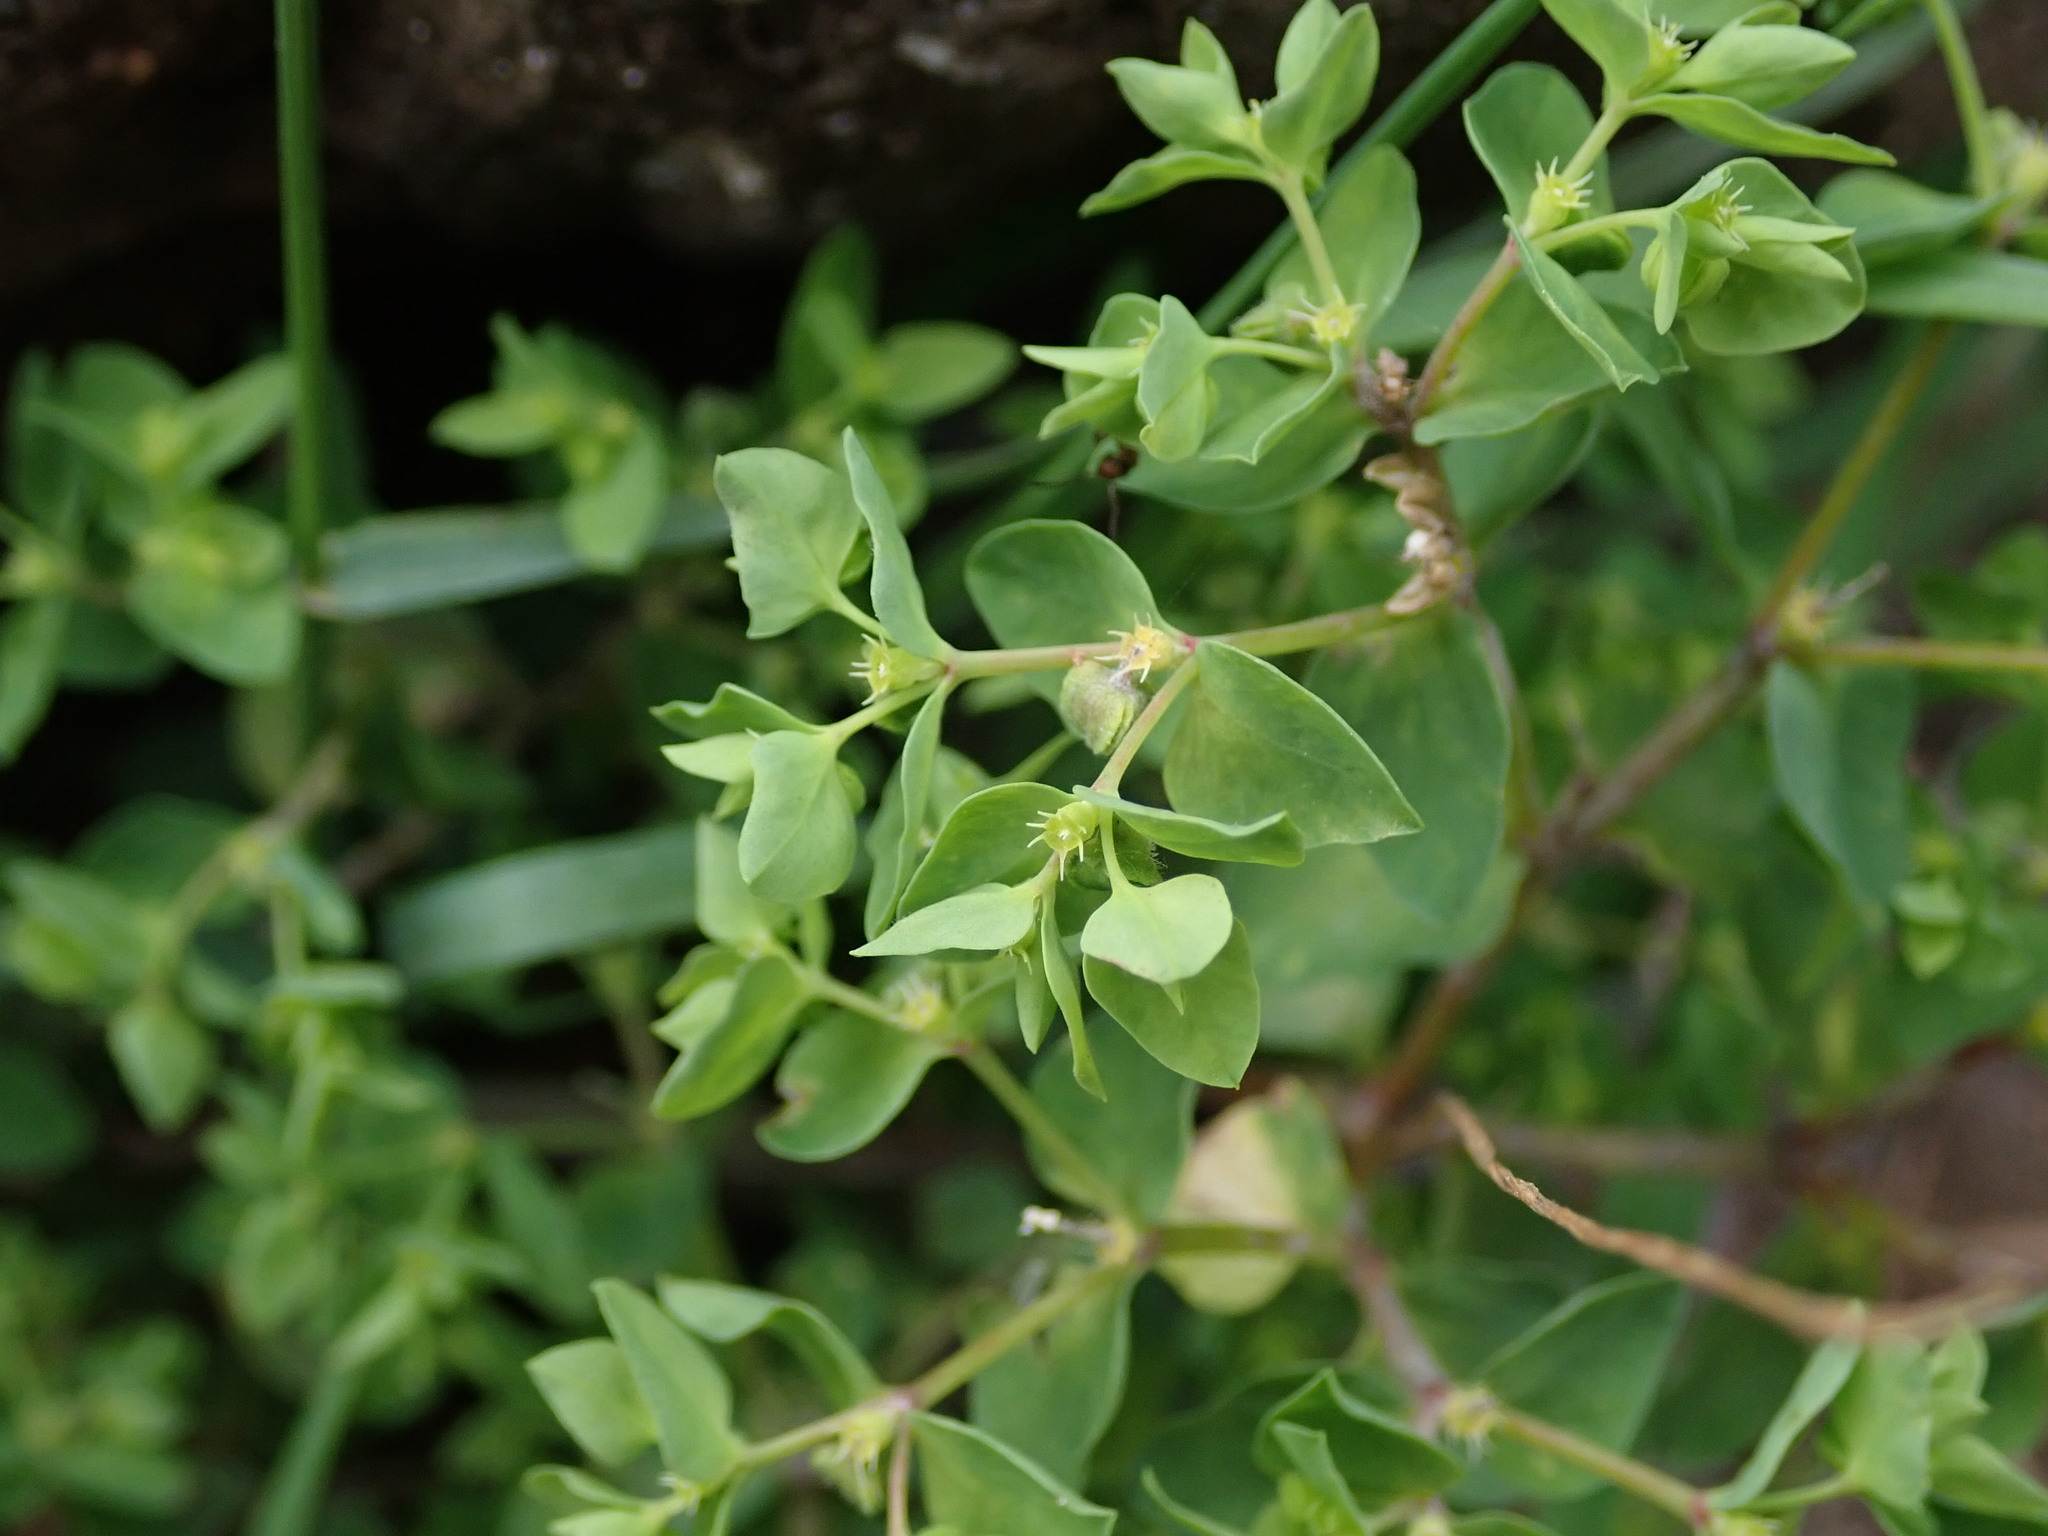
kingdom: Plantae
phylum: Tracheophyta
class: Magnoliopsida
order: Malpighiales
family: Euphorbiaceae
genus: Euphorbia
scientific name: Euphorbia peplus
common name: Petty spurge
